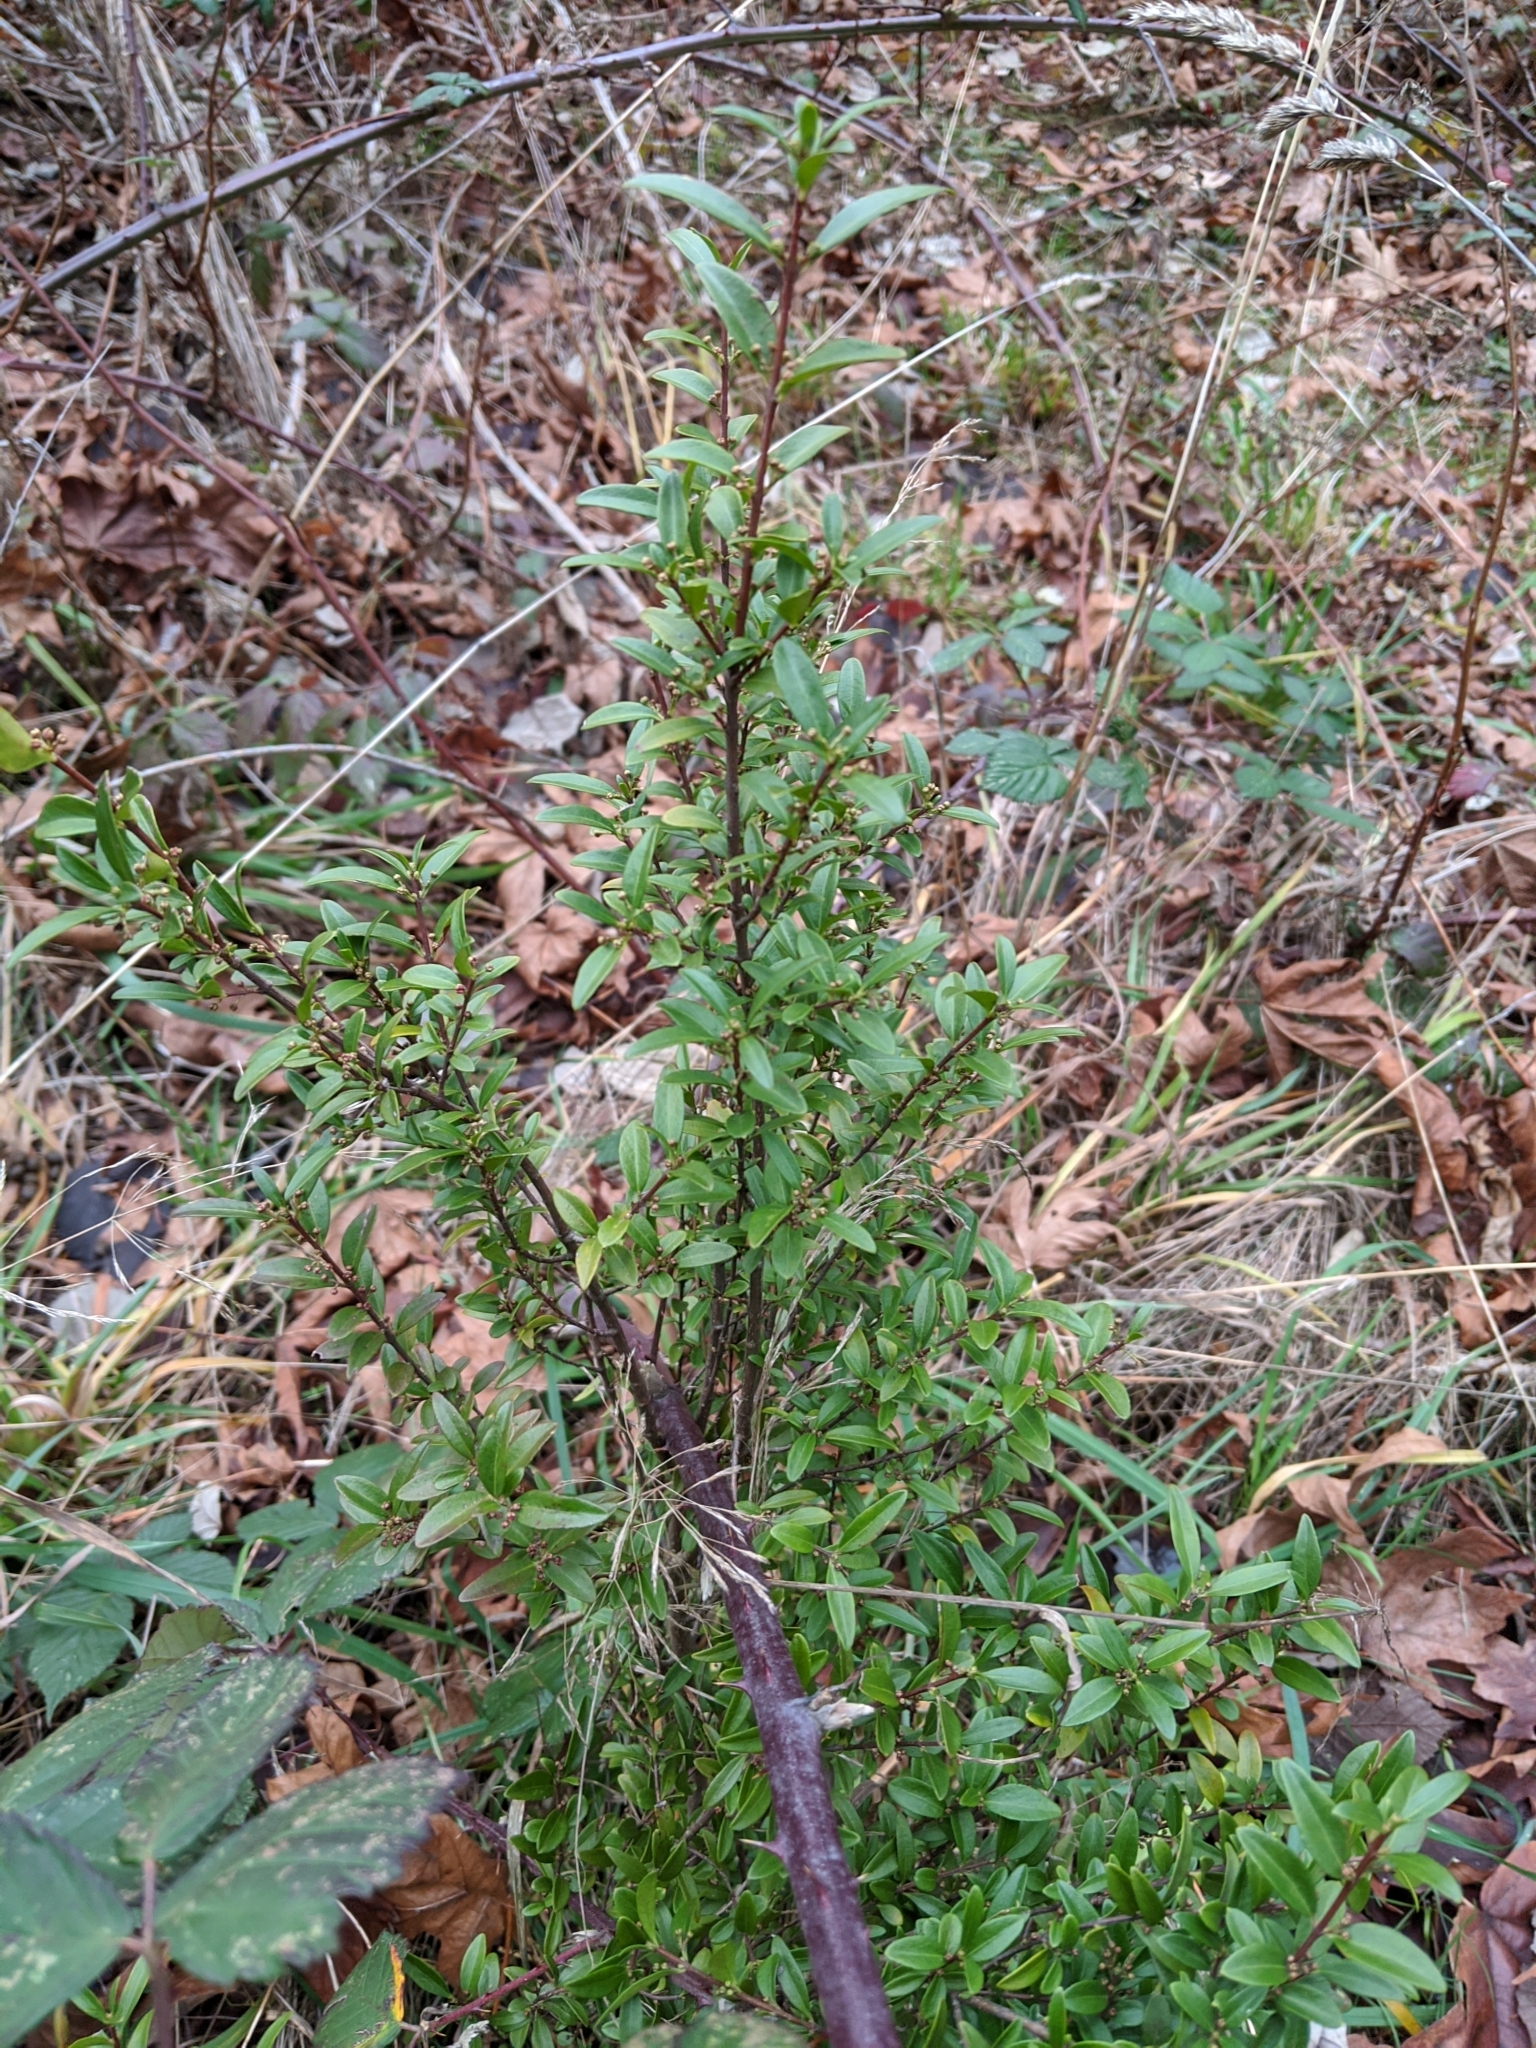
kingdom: Plantae
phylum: Tracheophyta
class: Magnoliopsida
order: Celastrales
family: Celastraceae
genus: Paxistima
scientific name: Paxistima myrsinites
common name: Mountain-lover
